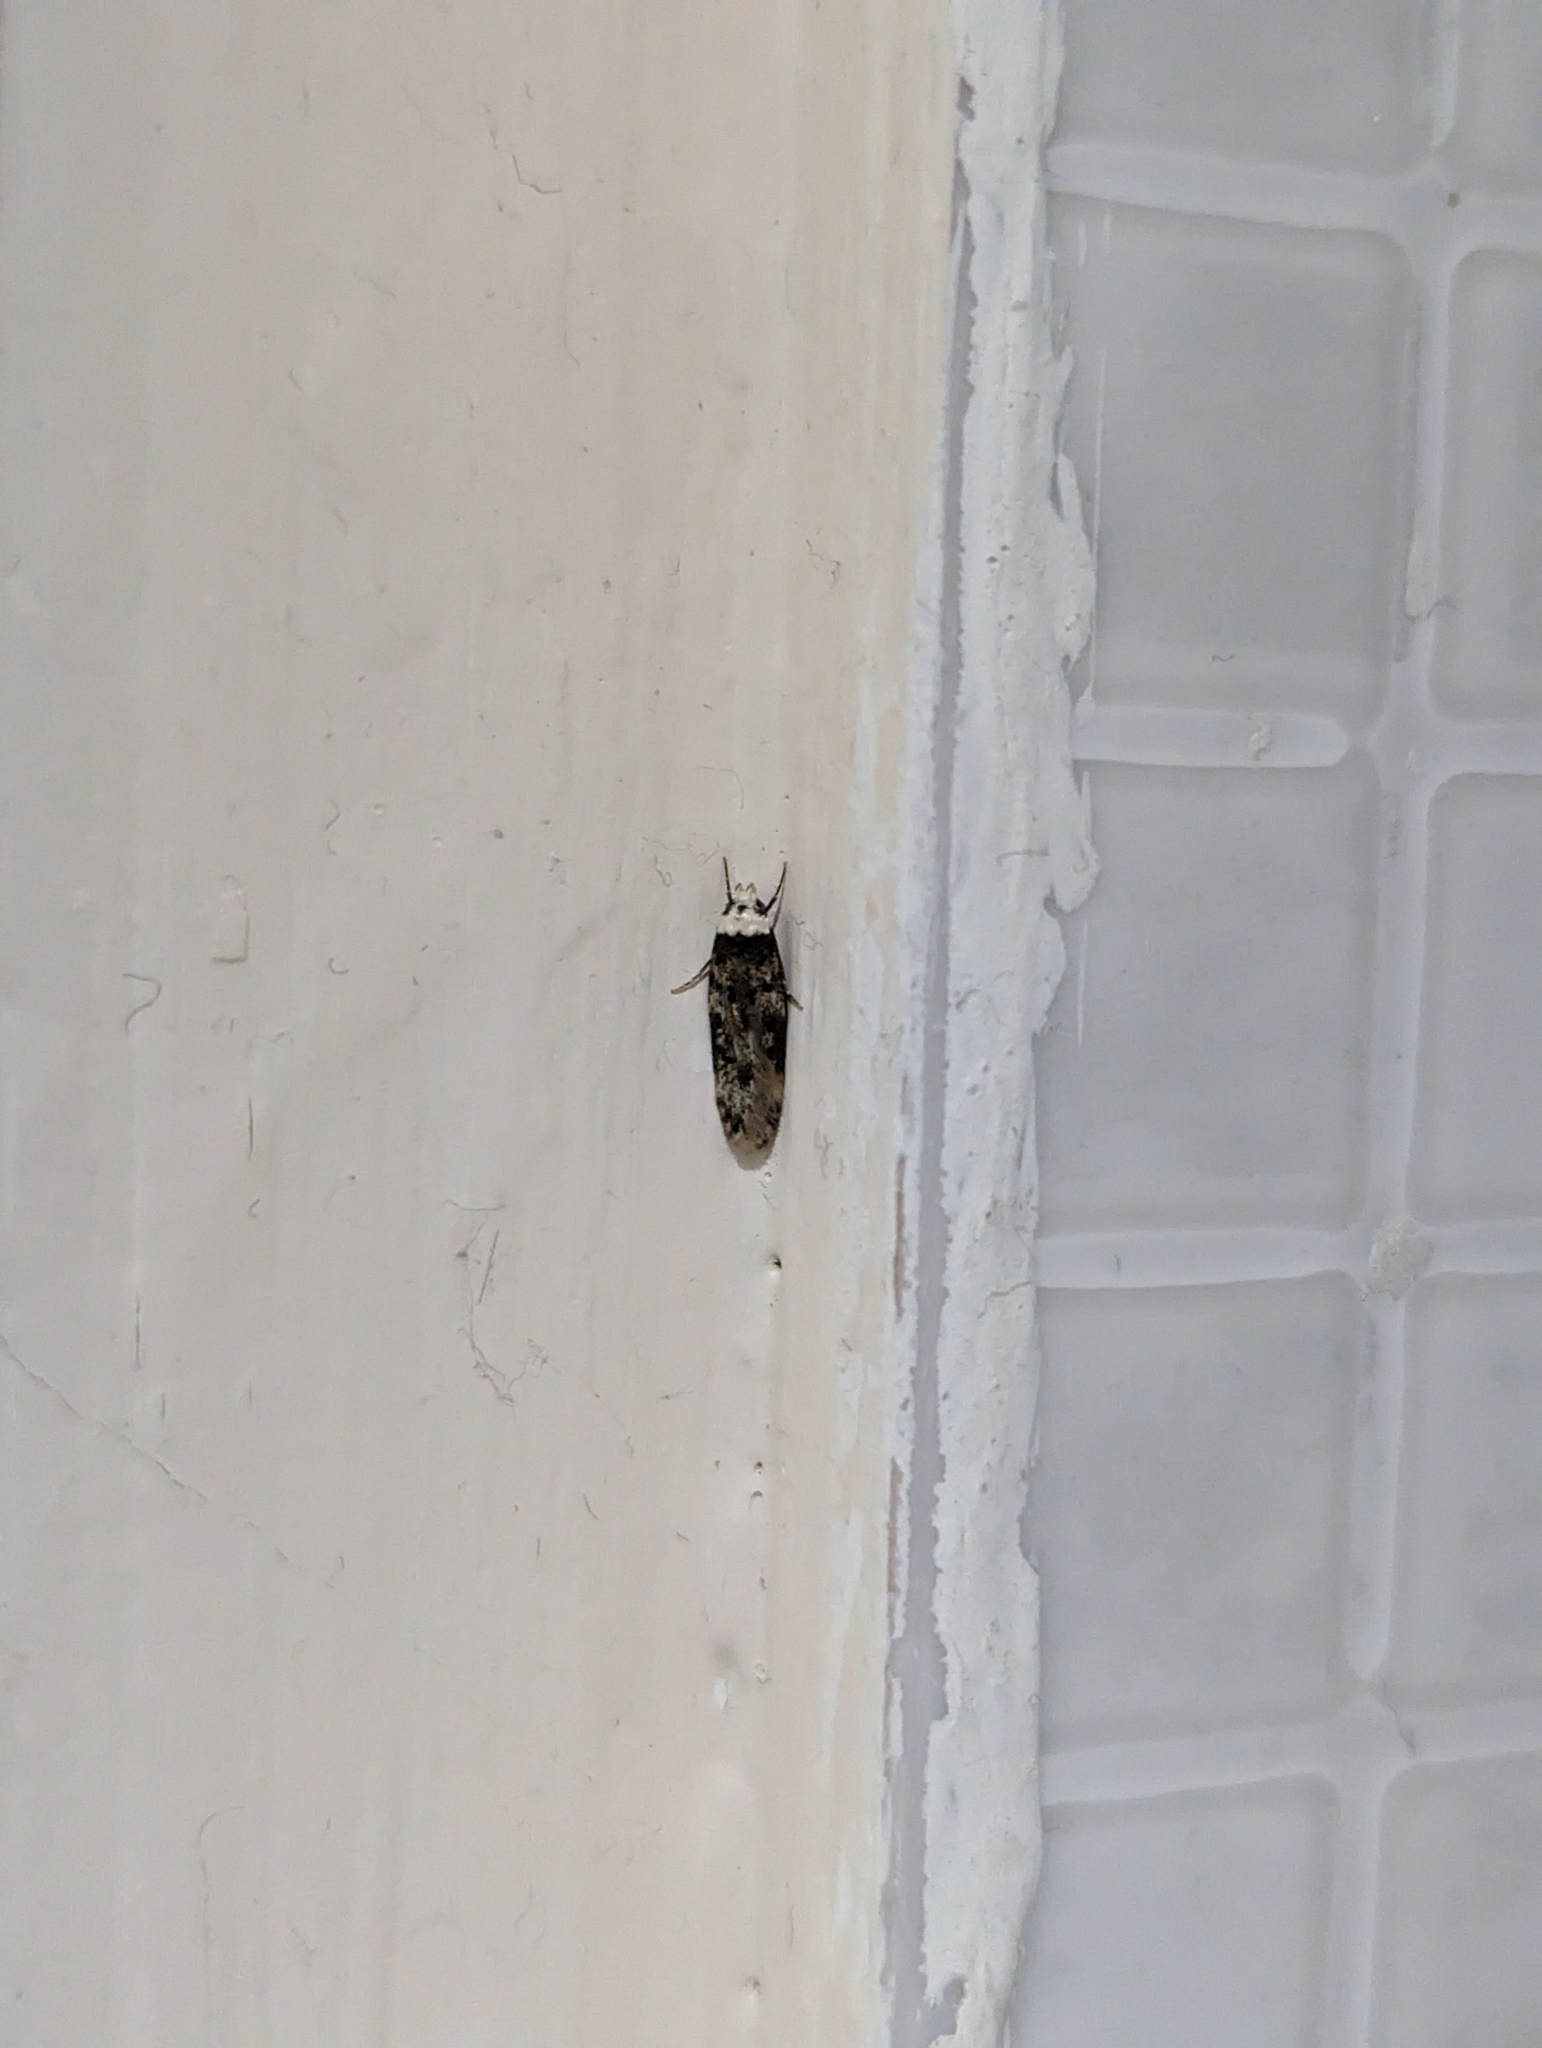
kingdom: Animalia
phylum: Arthropoda
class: Insecta
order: Lepidoptera
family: Oecophoridae
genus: Endrosis
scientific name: Endrosis sarcitrella
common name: White-shouldered house moth
